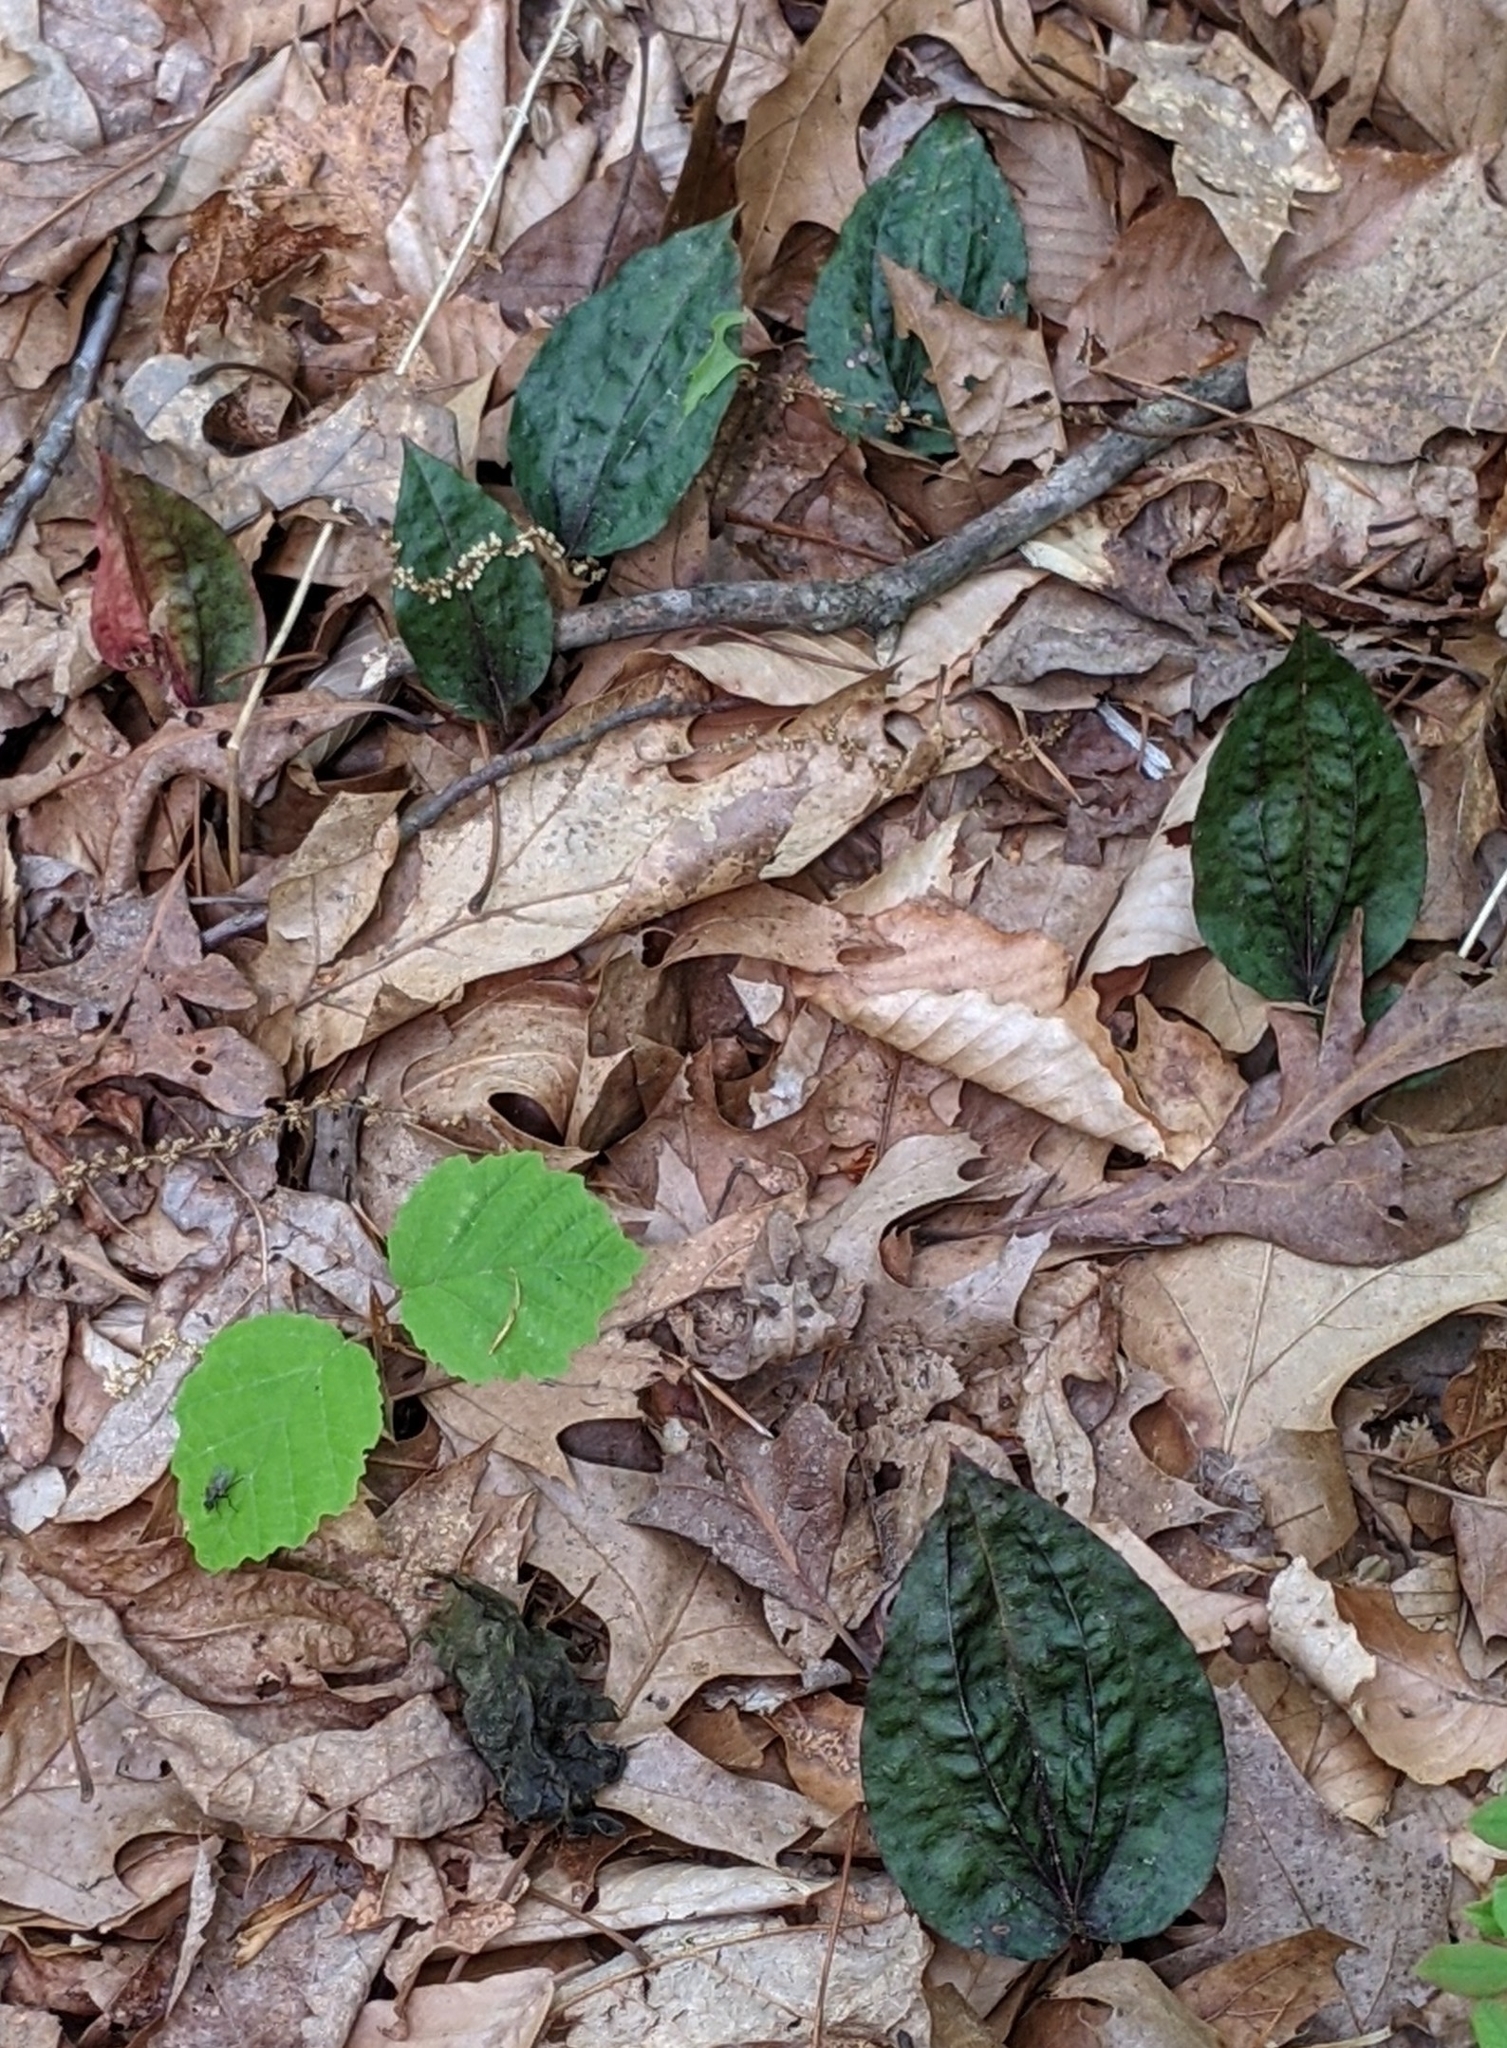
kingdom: Plantae
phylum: Tracheophyta
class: Liliopsida
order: Asparagales
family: Orchidaceae
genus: Tipularia
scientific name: Tipularia discolor
